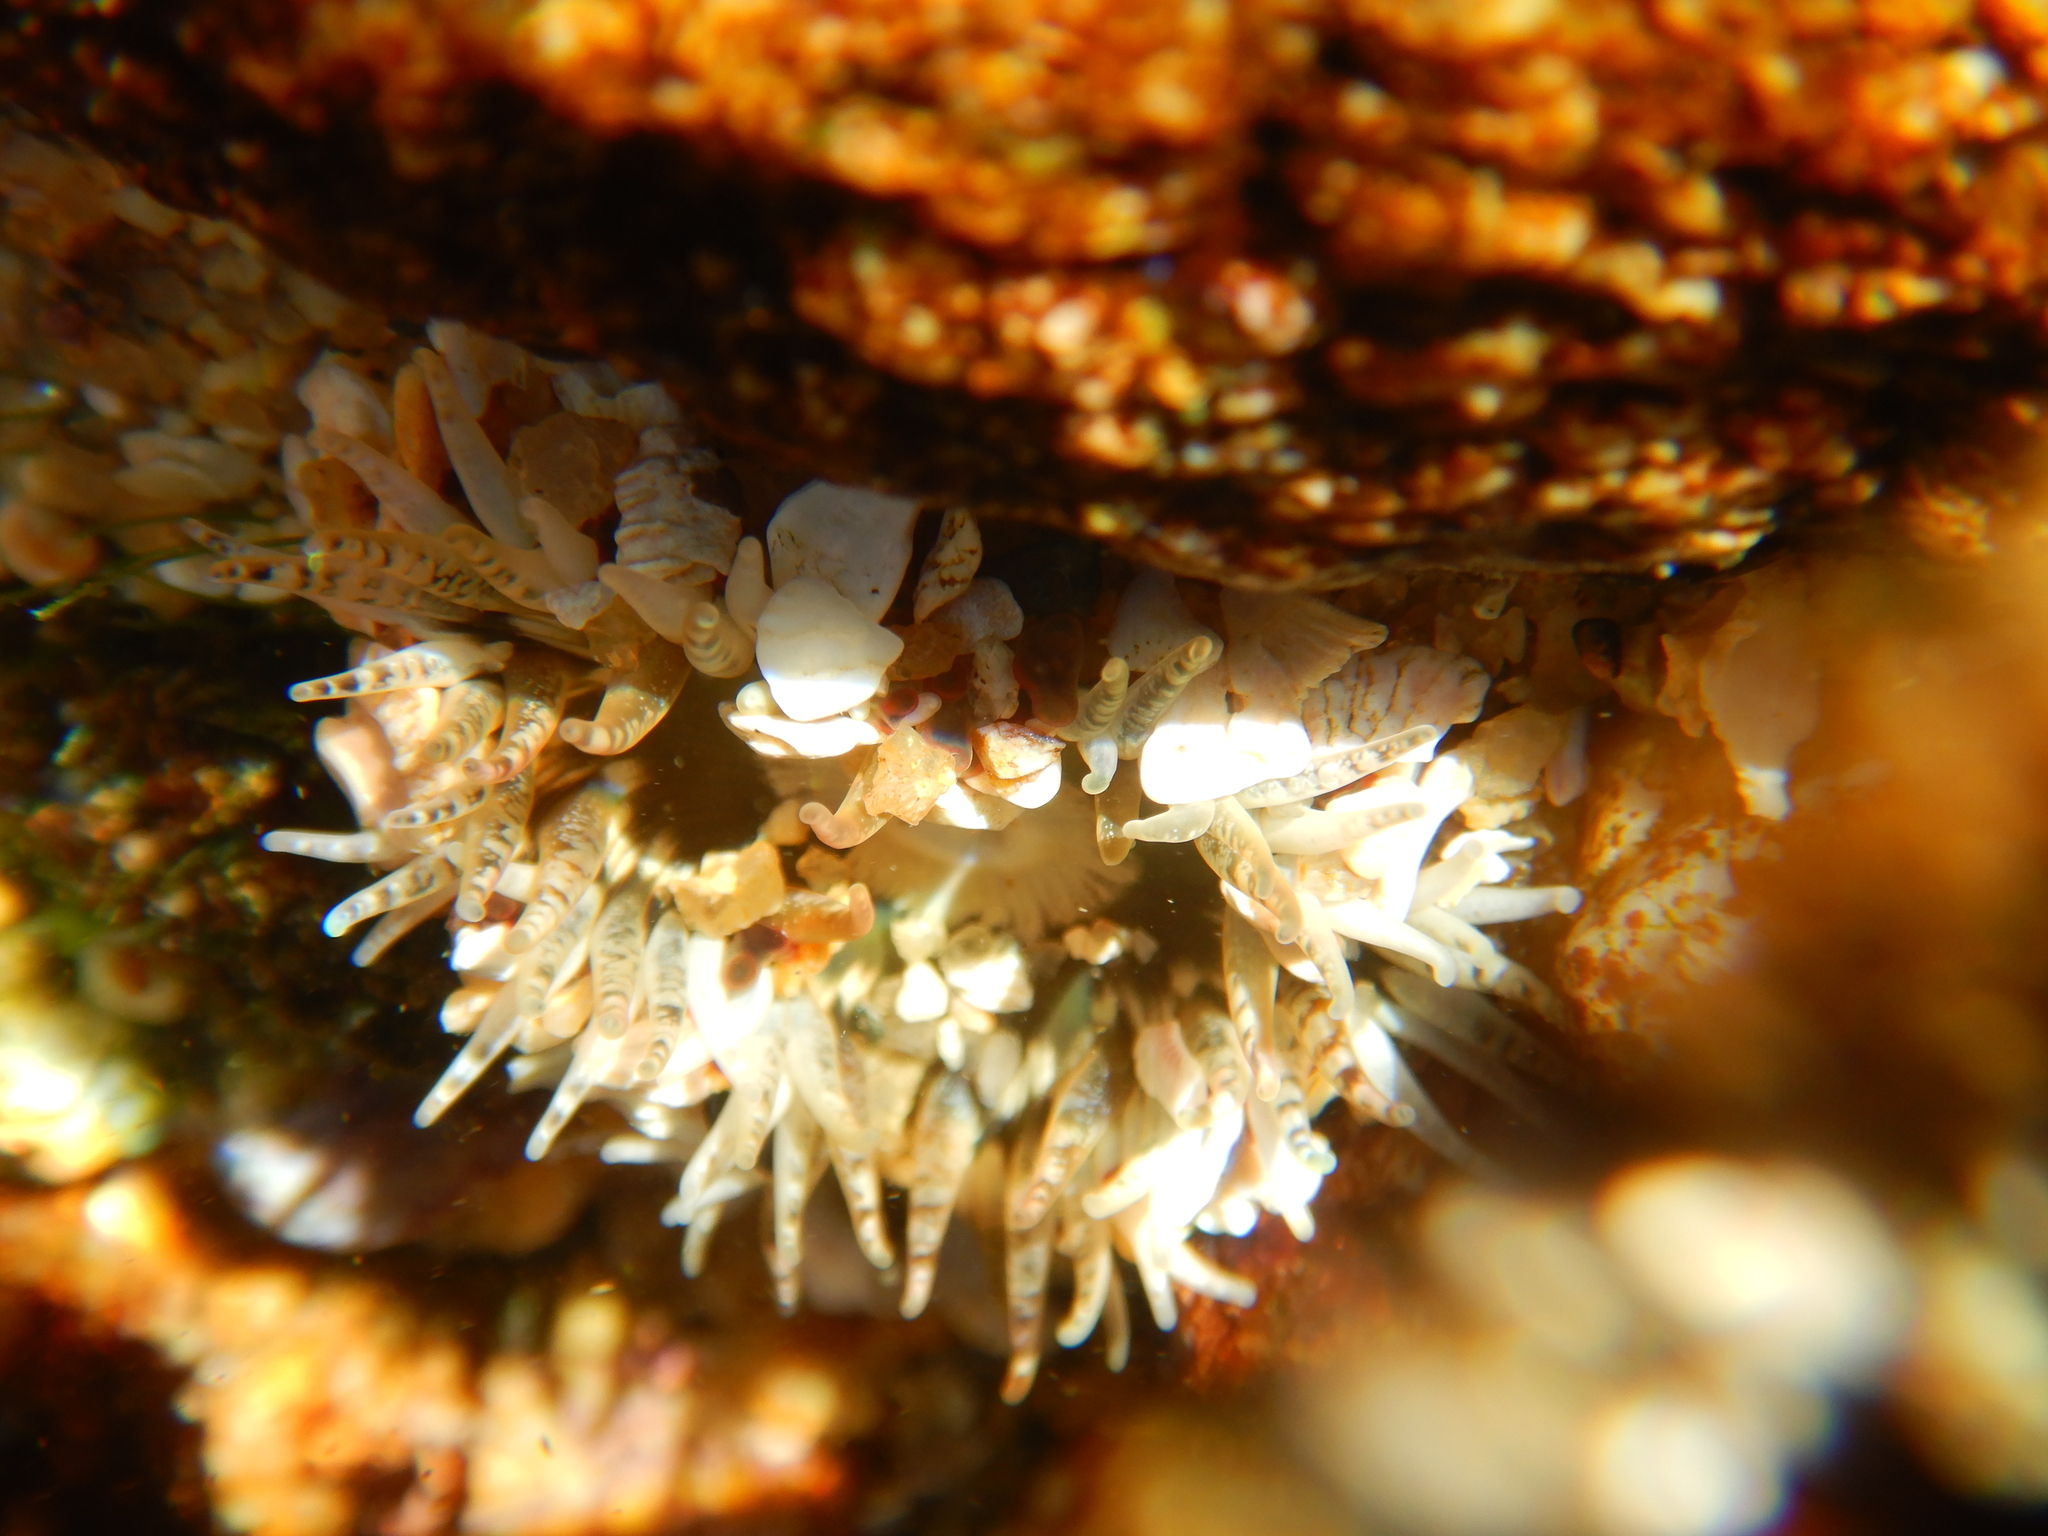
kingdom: Animalia
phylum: Cnidaria
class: Anthozoa
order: Actiniaria
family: Actiniidae
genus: Oulactis
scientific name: Oulactis concinnata
